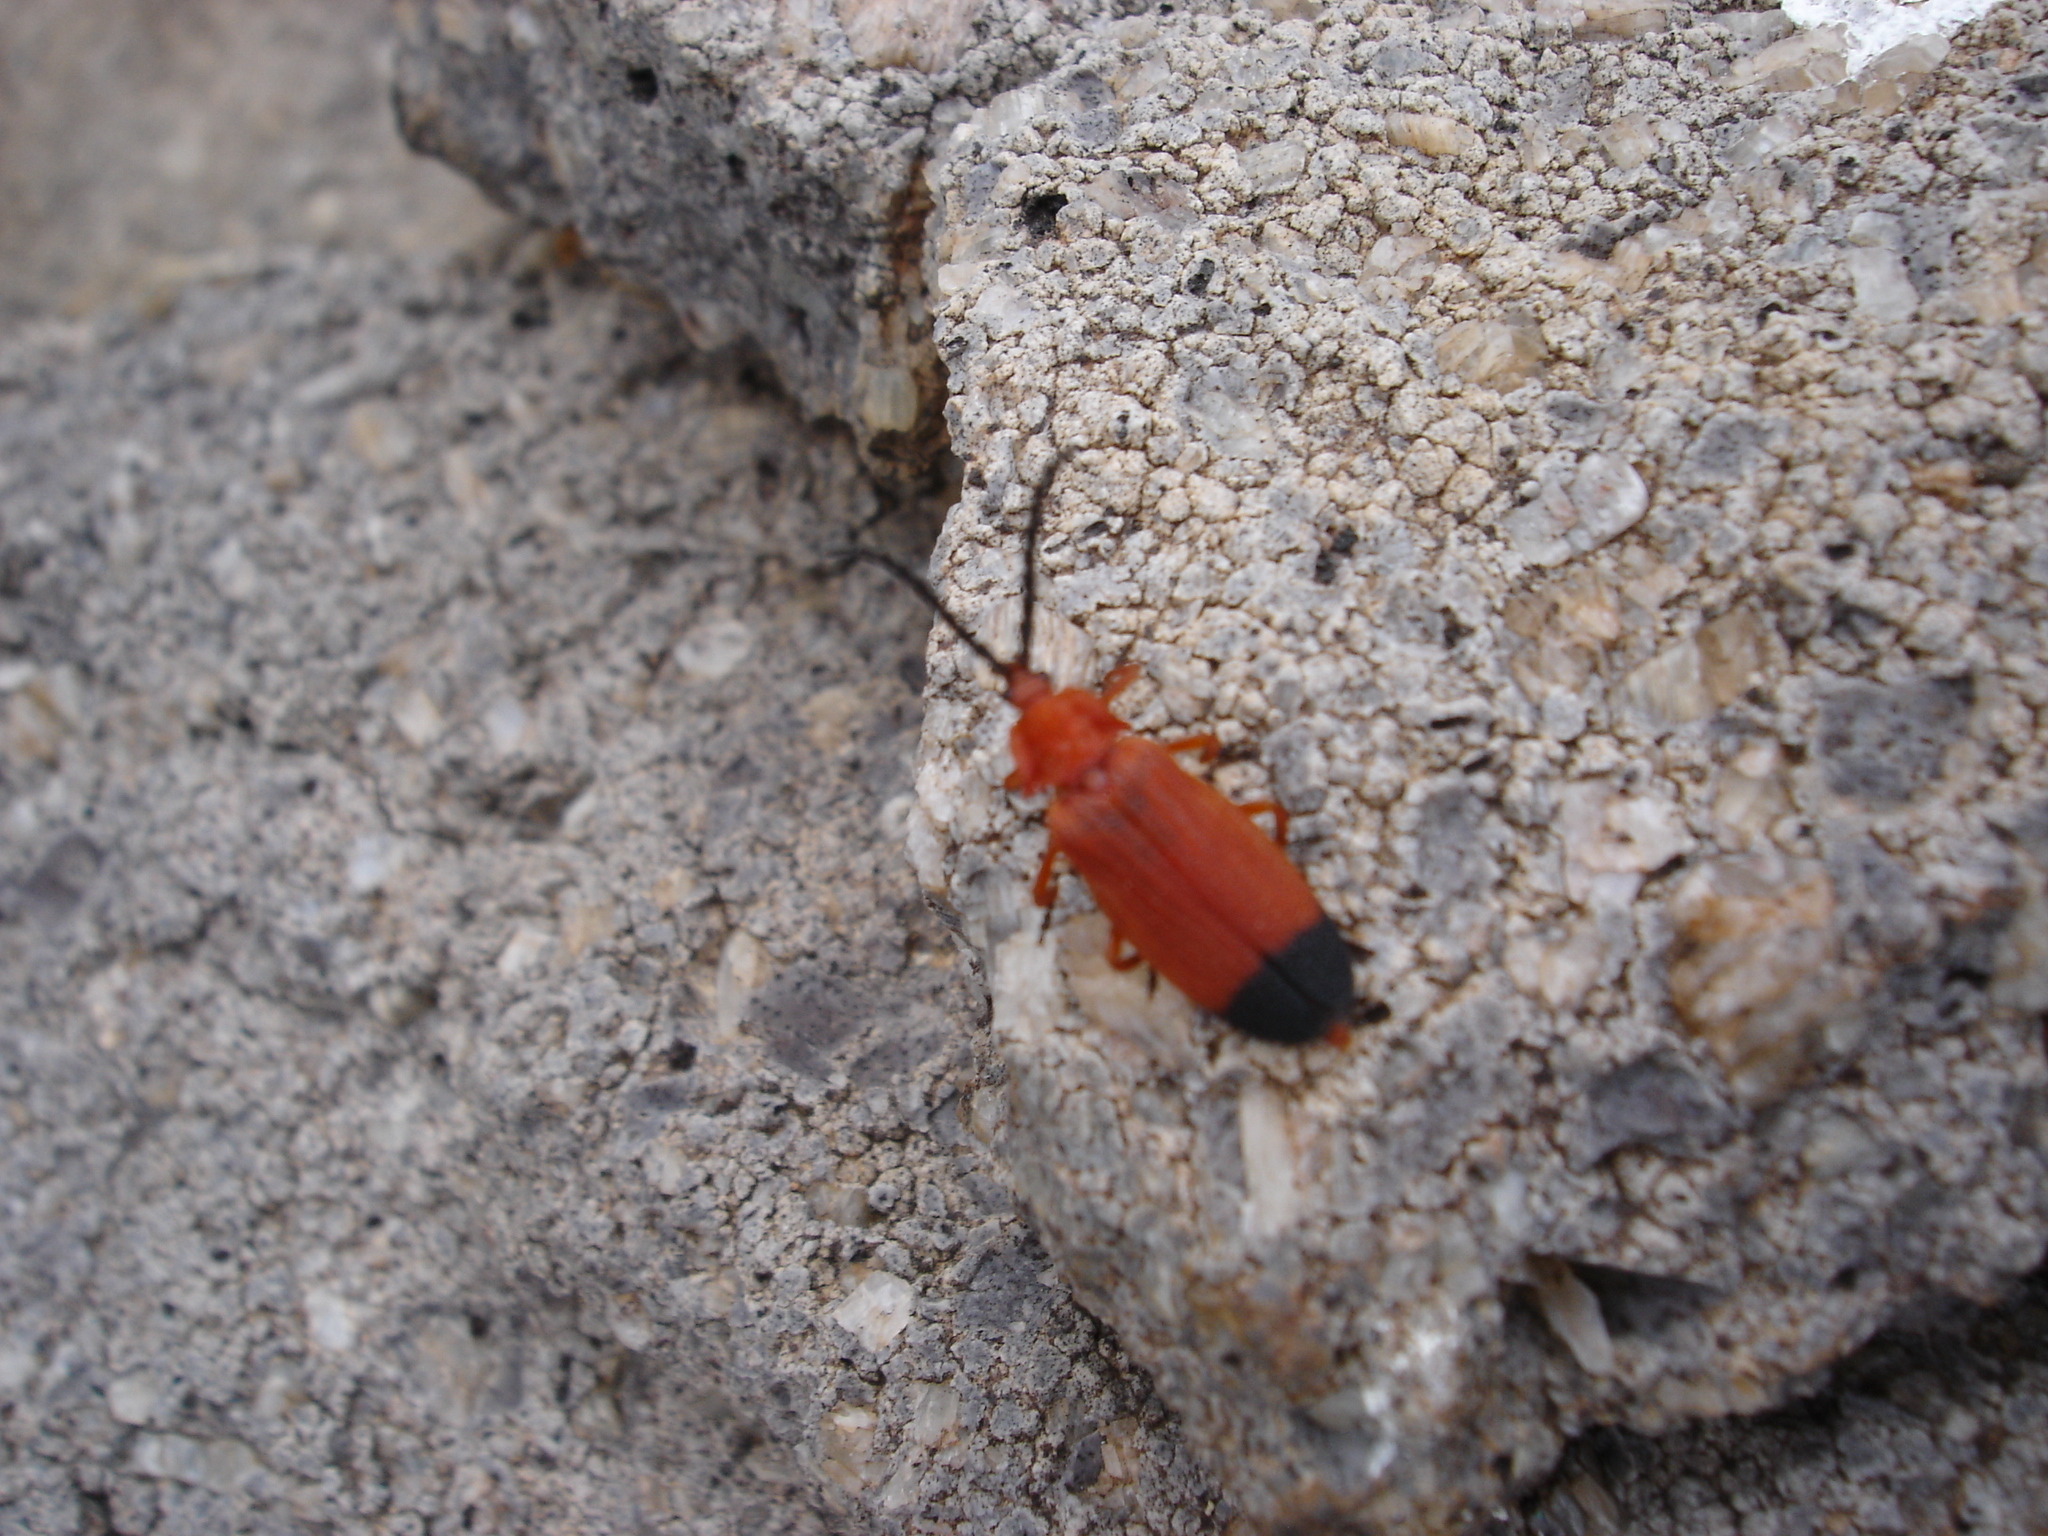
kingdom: Animalia
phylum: Arthropoda
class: Insecta
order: Coleoptera
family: Lycidae
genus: Lycus
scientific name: Lycus sanguineus
